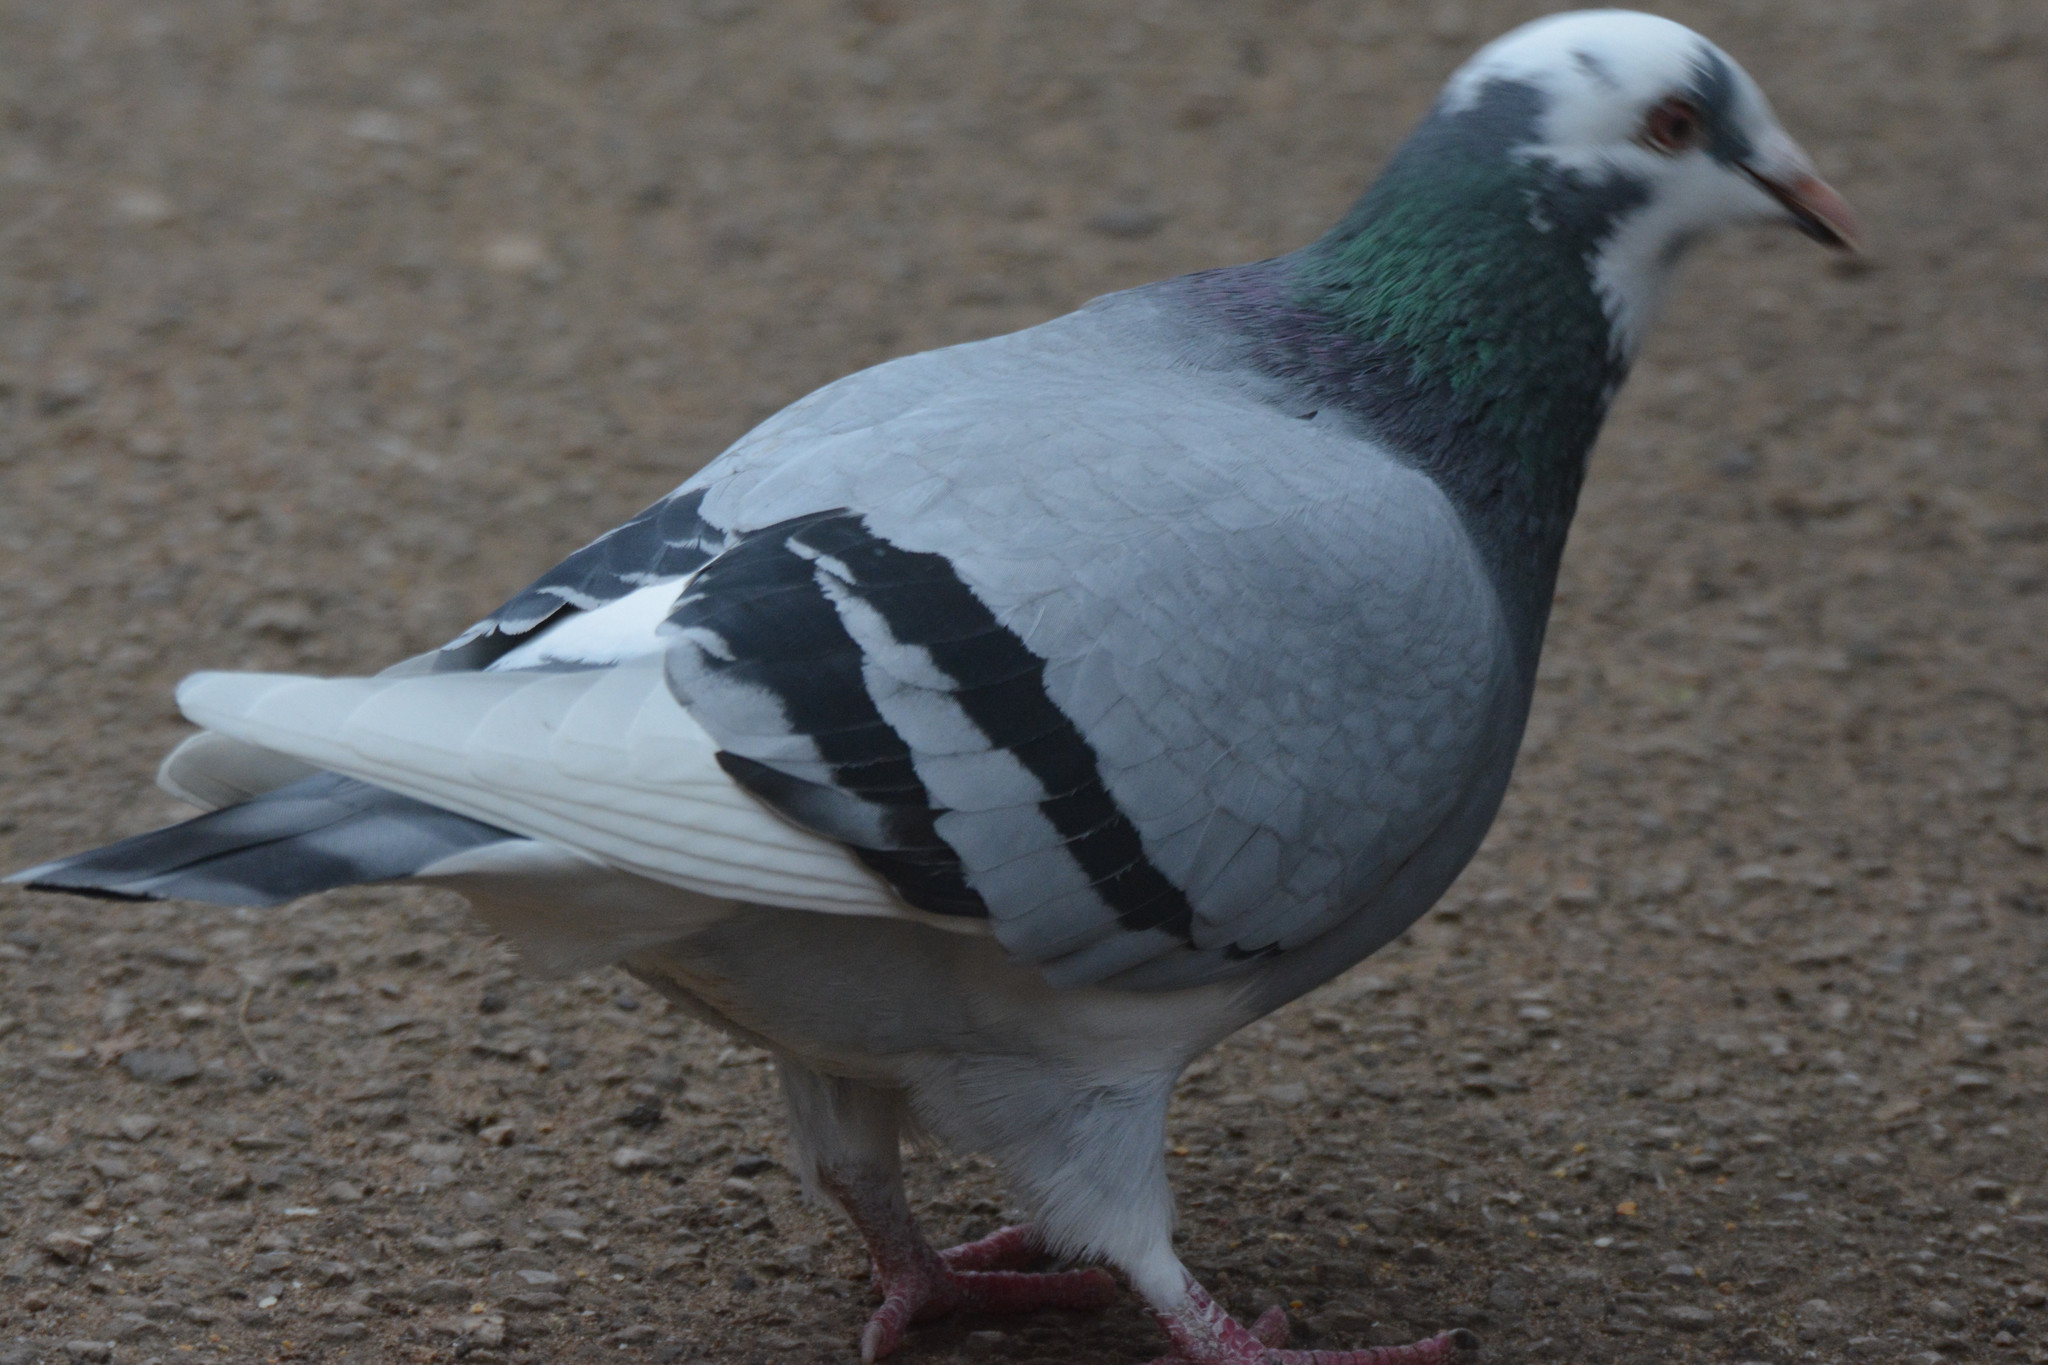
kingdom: Animalia
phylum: Chordata
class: Aves
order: Columbiformes
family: Columbidae
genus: Columba
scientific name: Columba livia
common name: Rock pigeon
